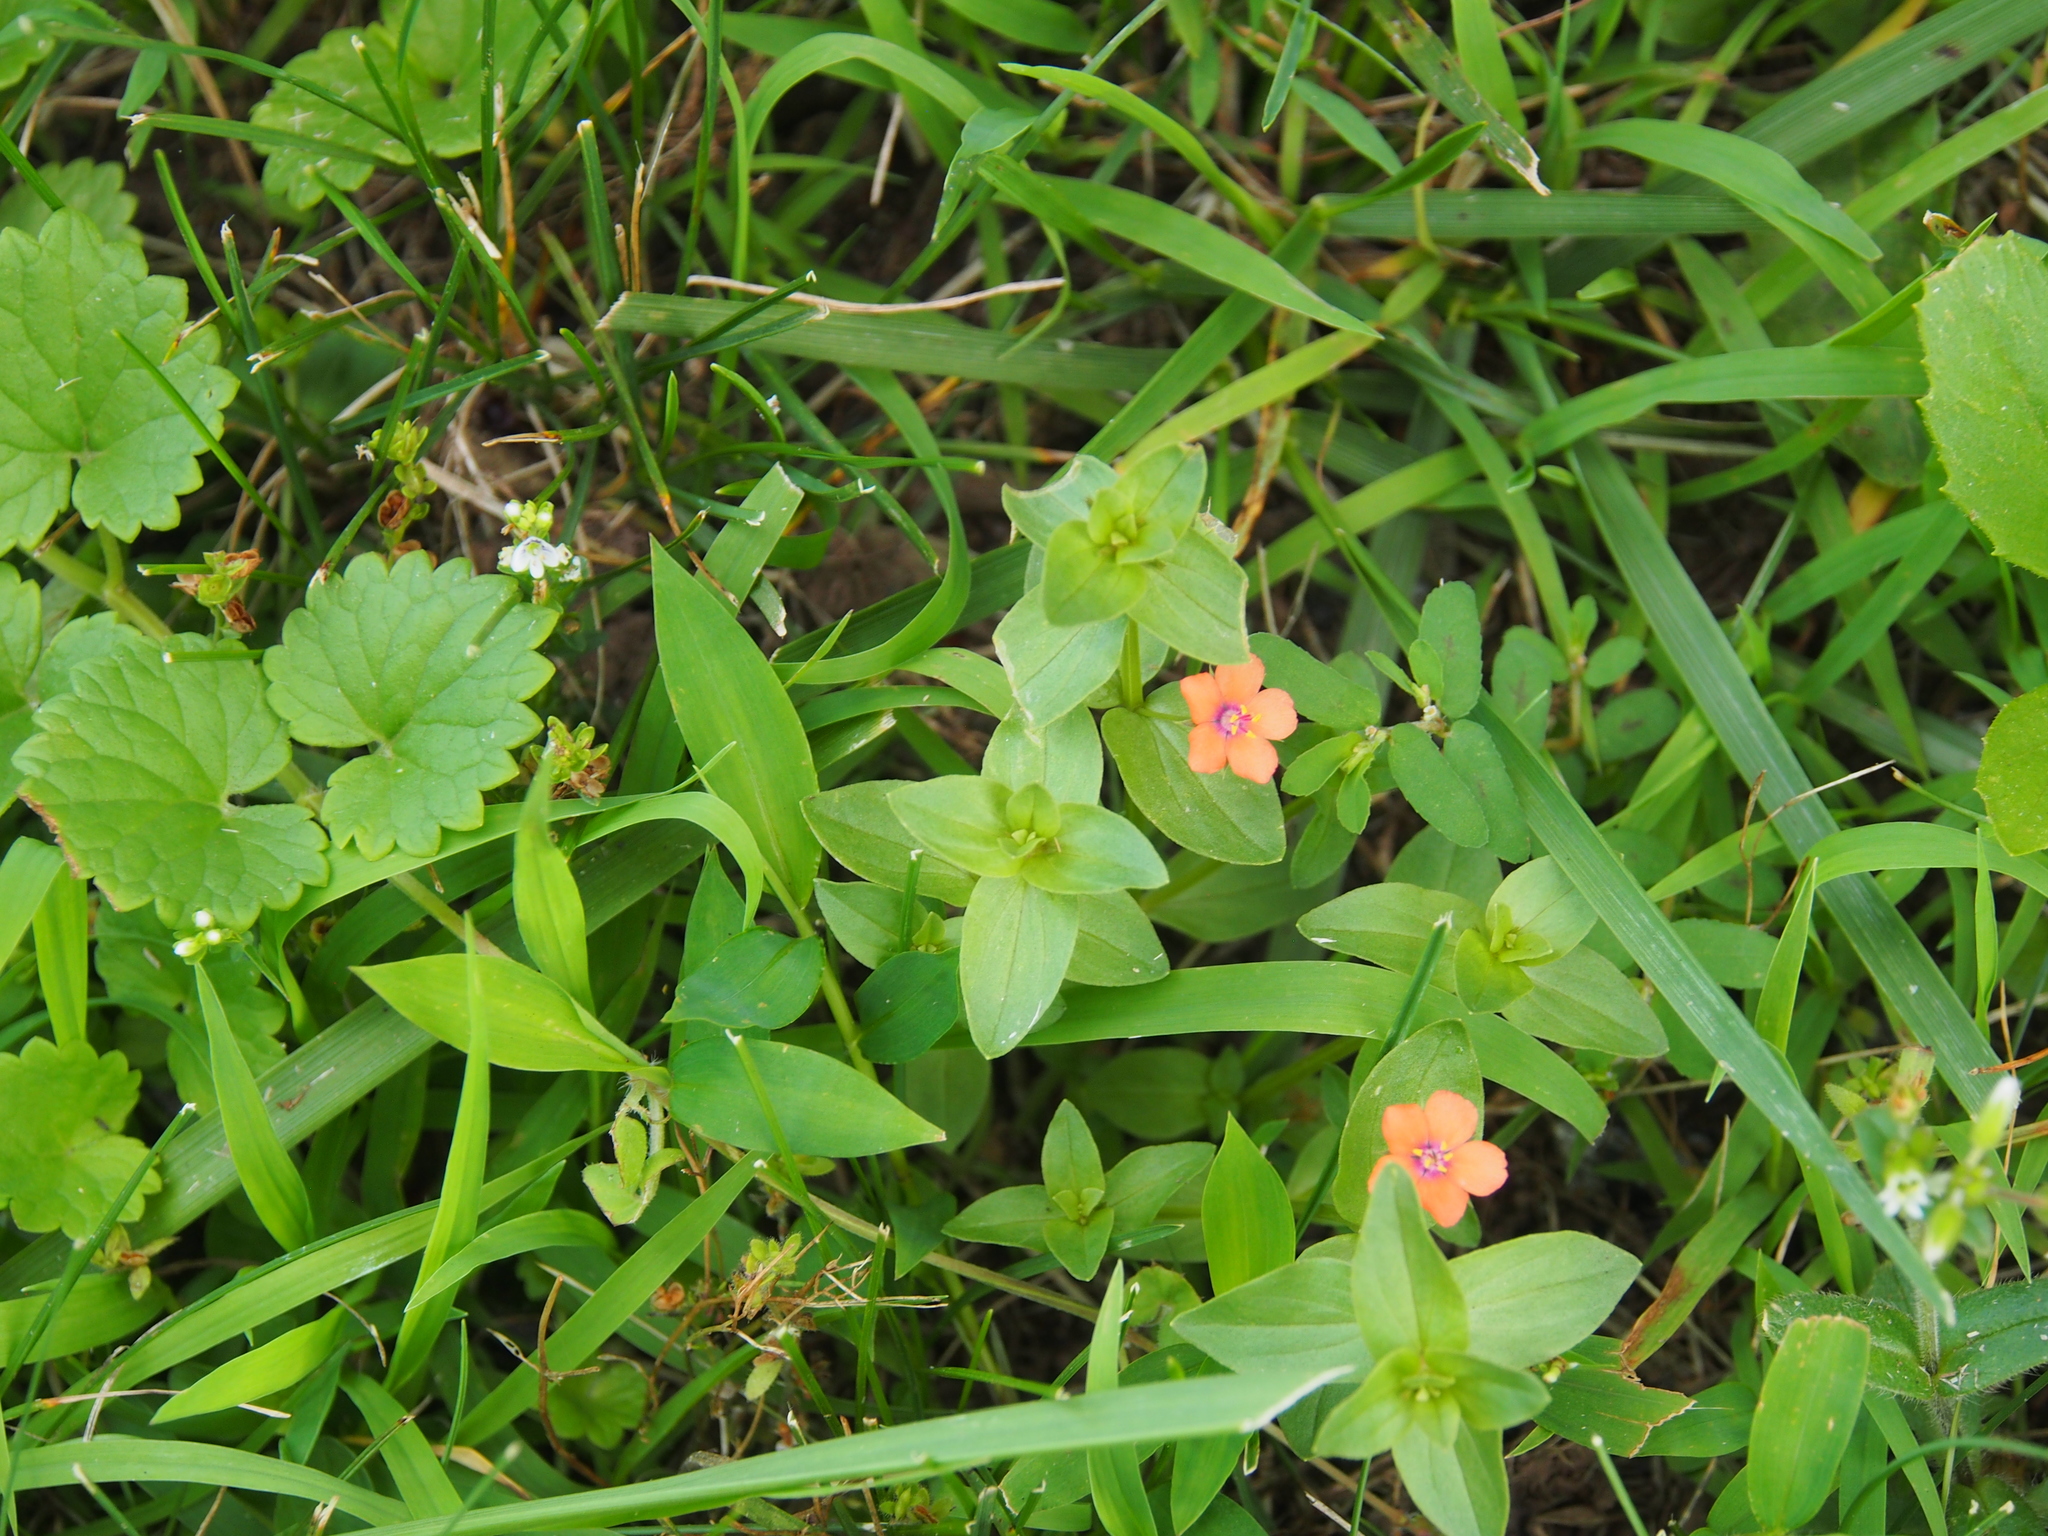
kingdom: Plantae
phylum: Tracheophyta
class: Magnoliopsida
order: Ericales
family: Primulaceae
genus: Lysimachia
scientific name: Lysimachia arvensis
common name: Scarlet pimpernel
